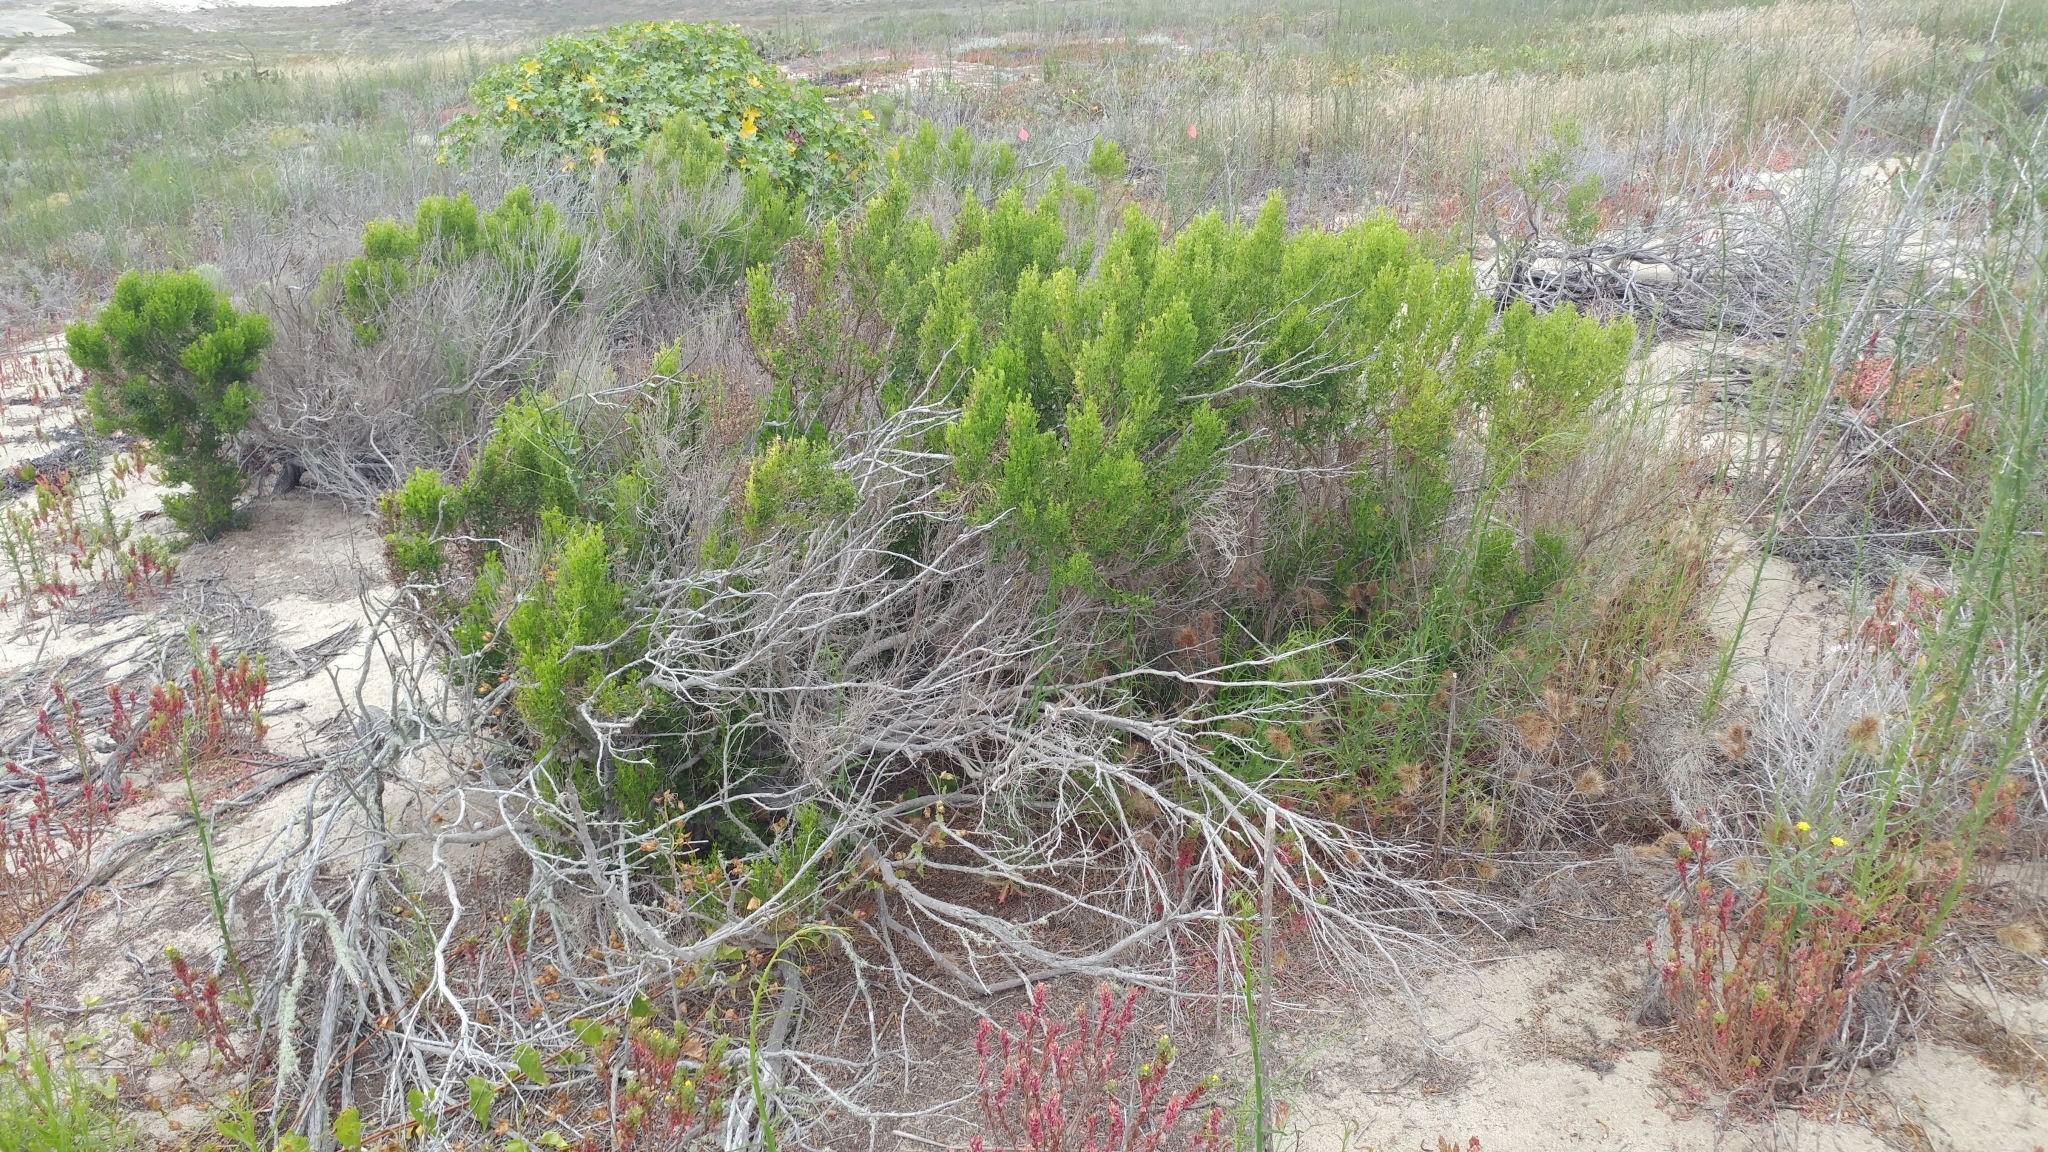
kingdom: Plantae
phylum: Tracheophyta
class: Magnoliopsida
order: Asterales
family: Asteraceae
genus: Baccharis
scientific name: Baccharis pilularis
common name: Coyotebrush
